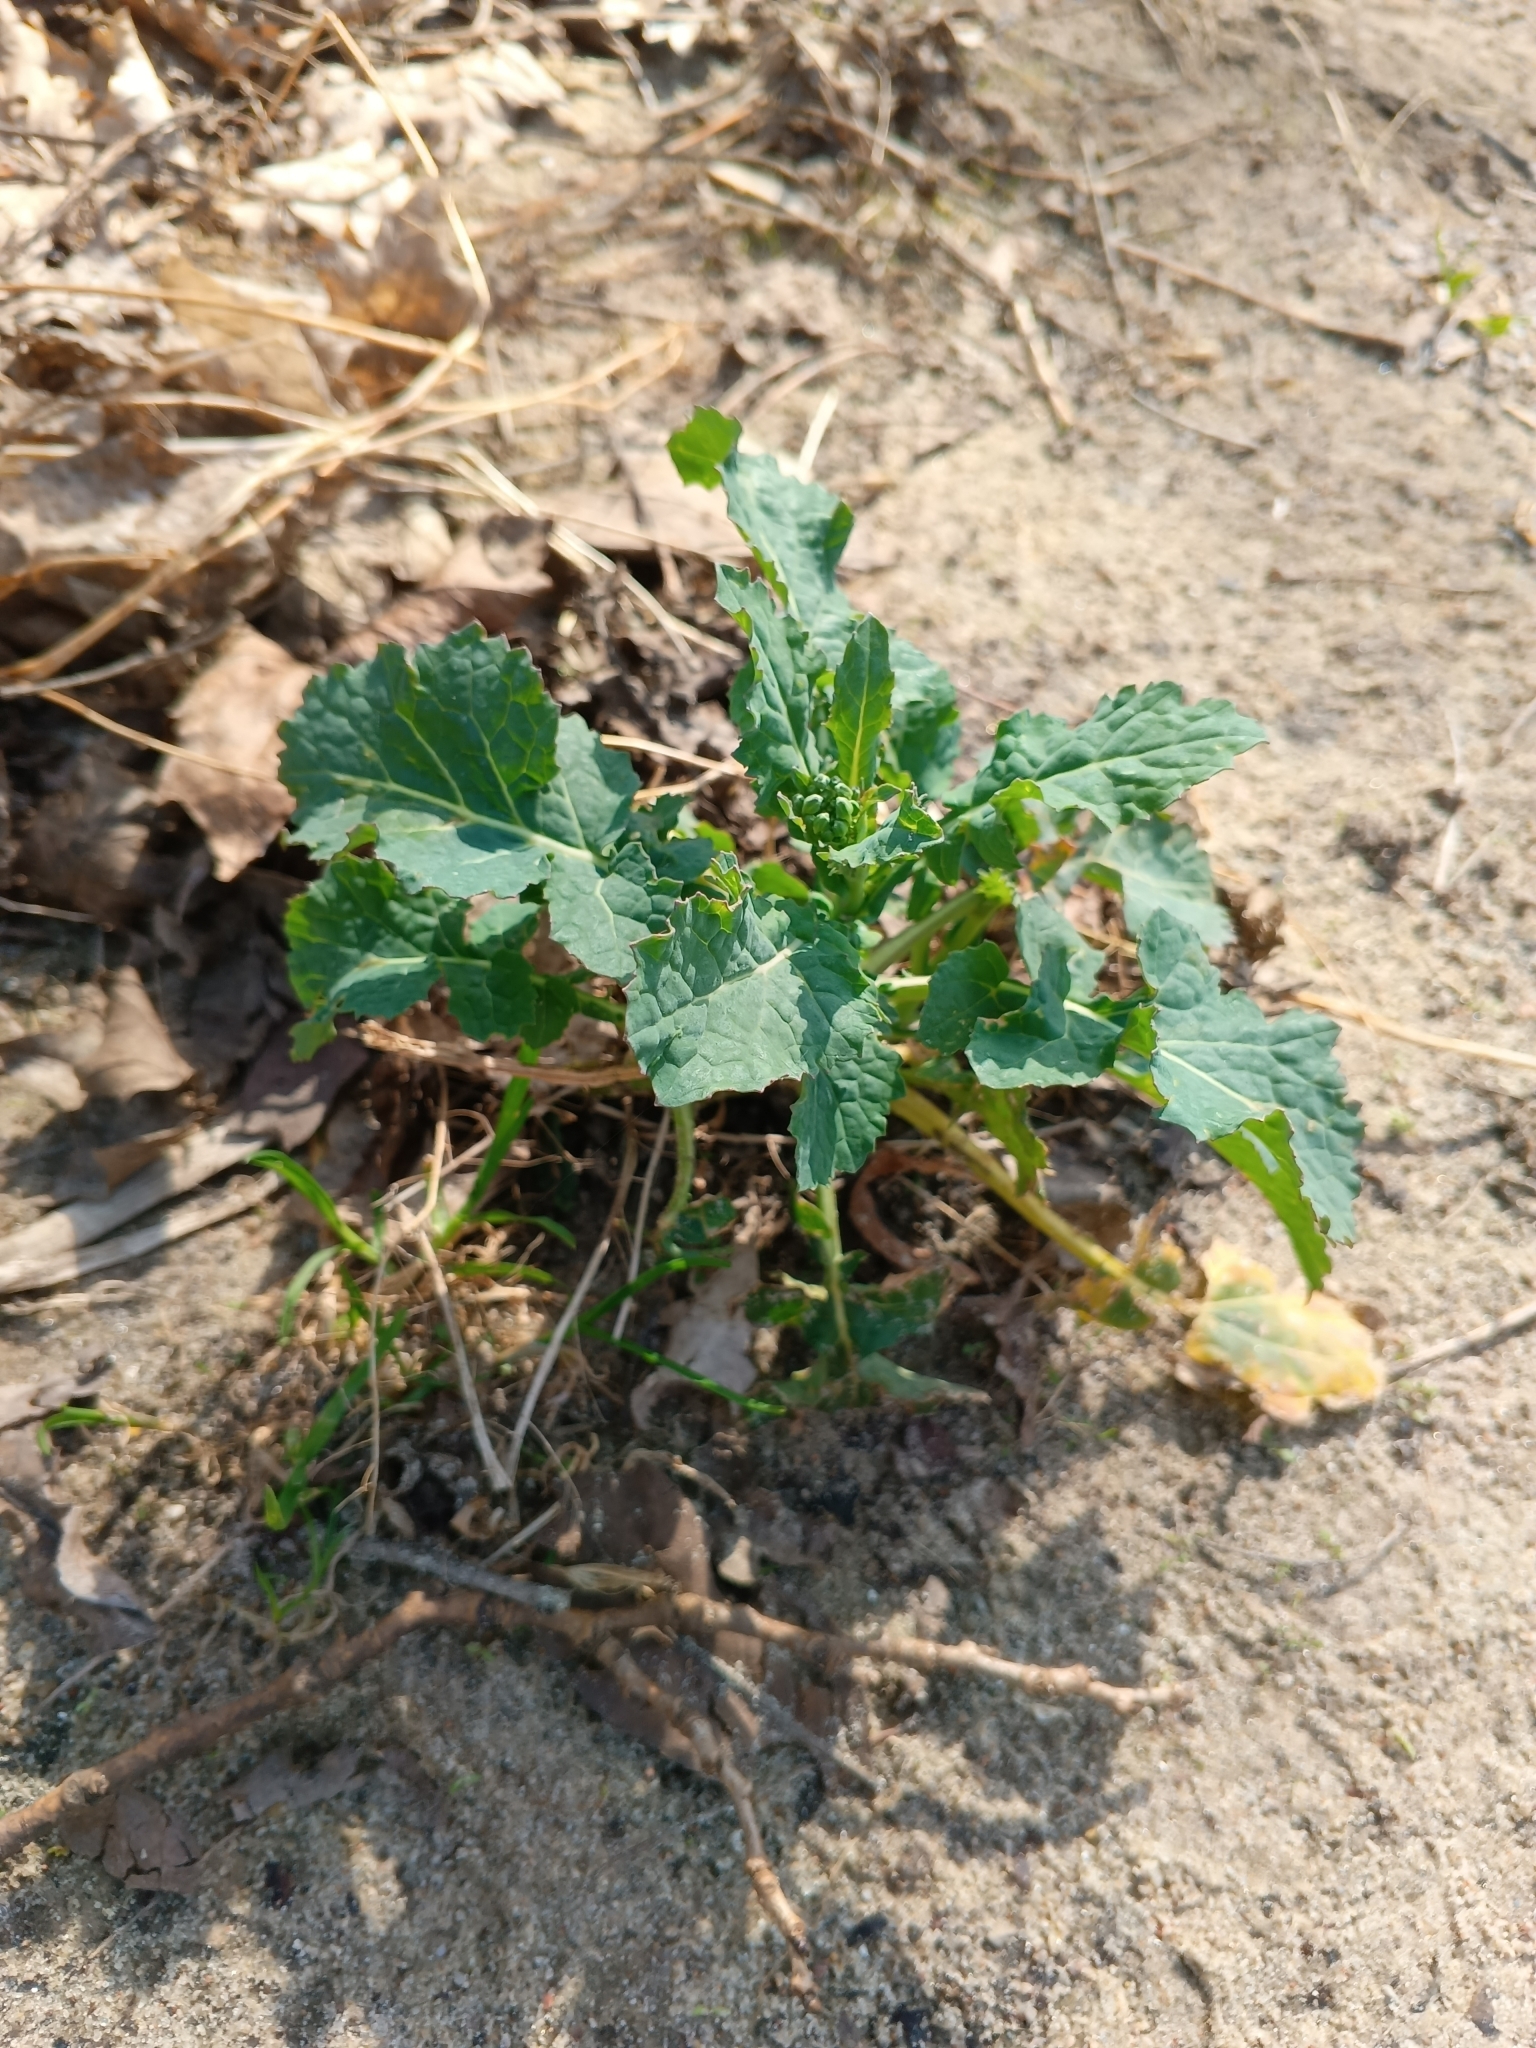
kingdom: Plantae
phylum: Tracheophyta
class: Magnoliopsida
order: Brassicales
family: Brassicaceae
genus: Brassica
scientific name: Brassica napus
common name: Rape
